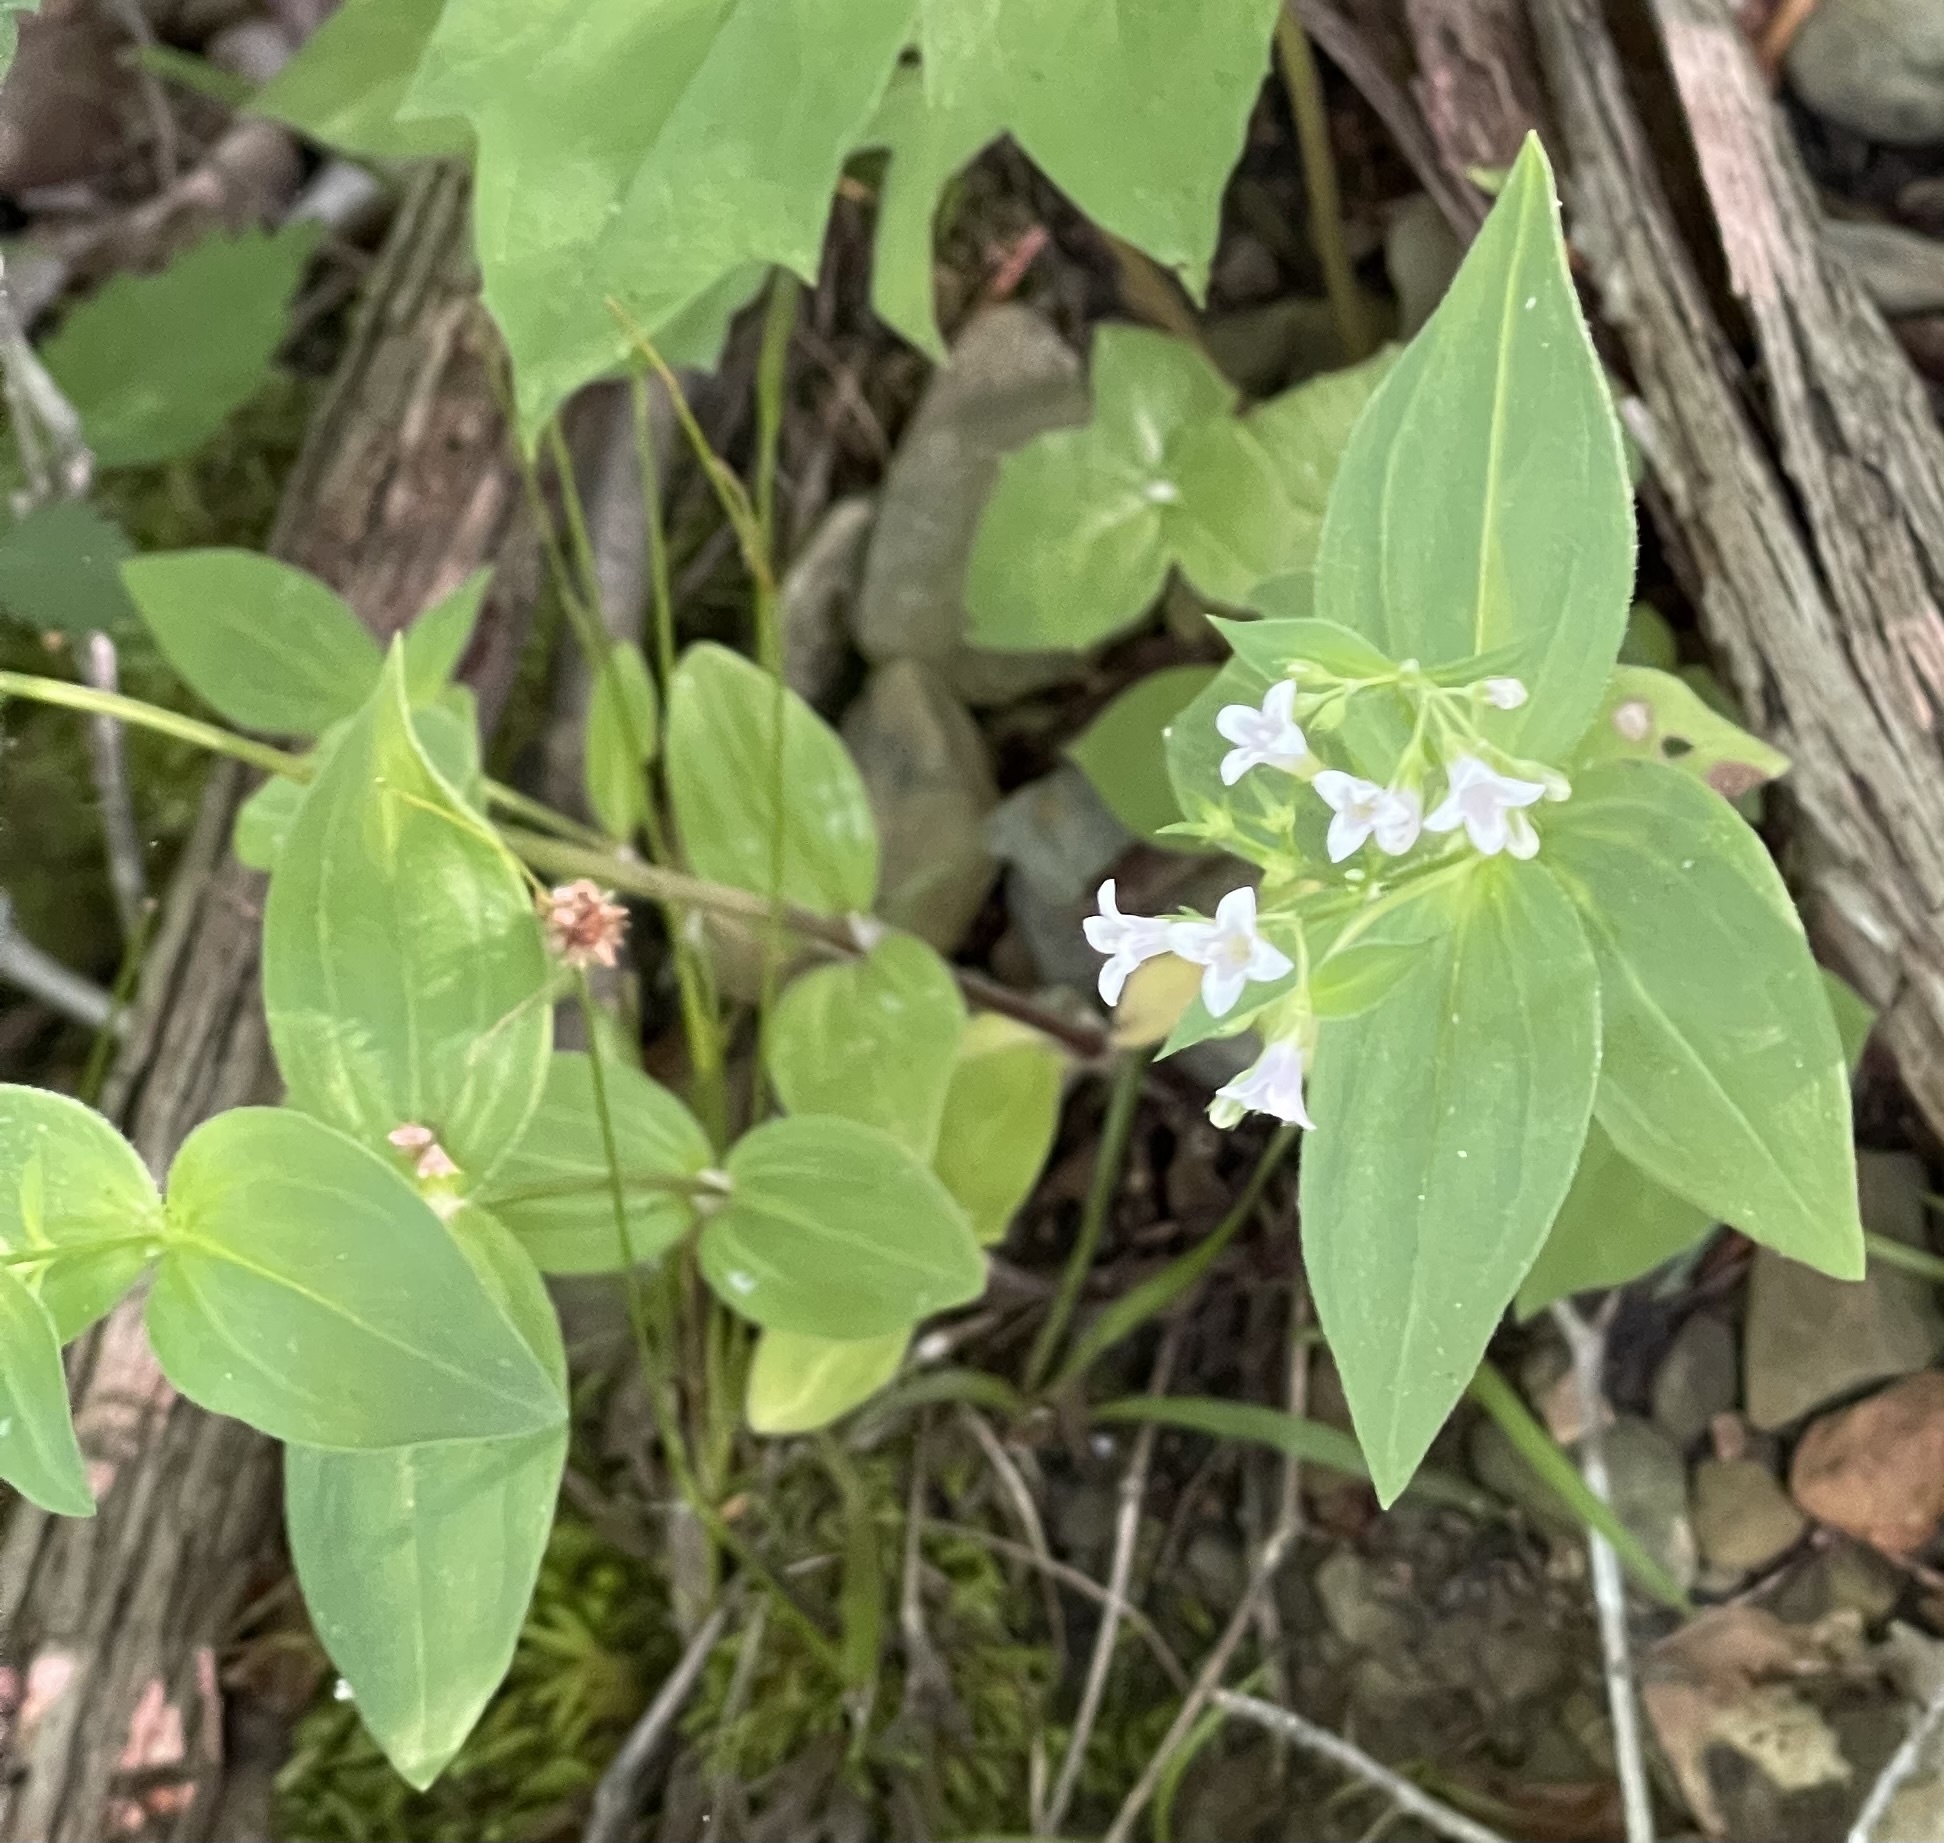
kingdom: Plantae
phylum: Tracheophyta
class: Magnoliopsida
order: Gentianales
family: Rubiaceae
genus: Houstonia
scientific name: Houstonia purpurea
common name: Summer bluet
